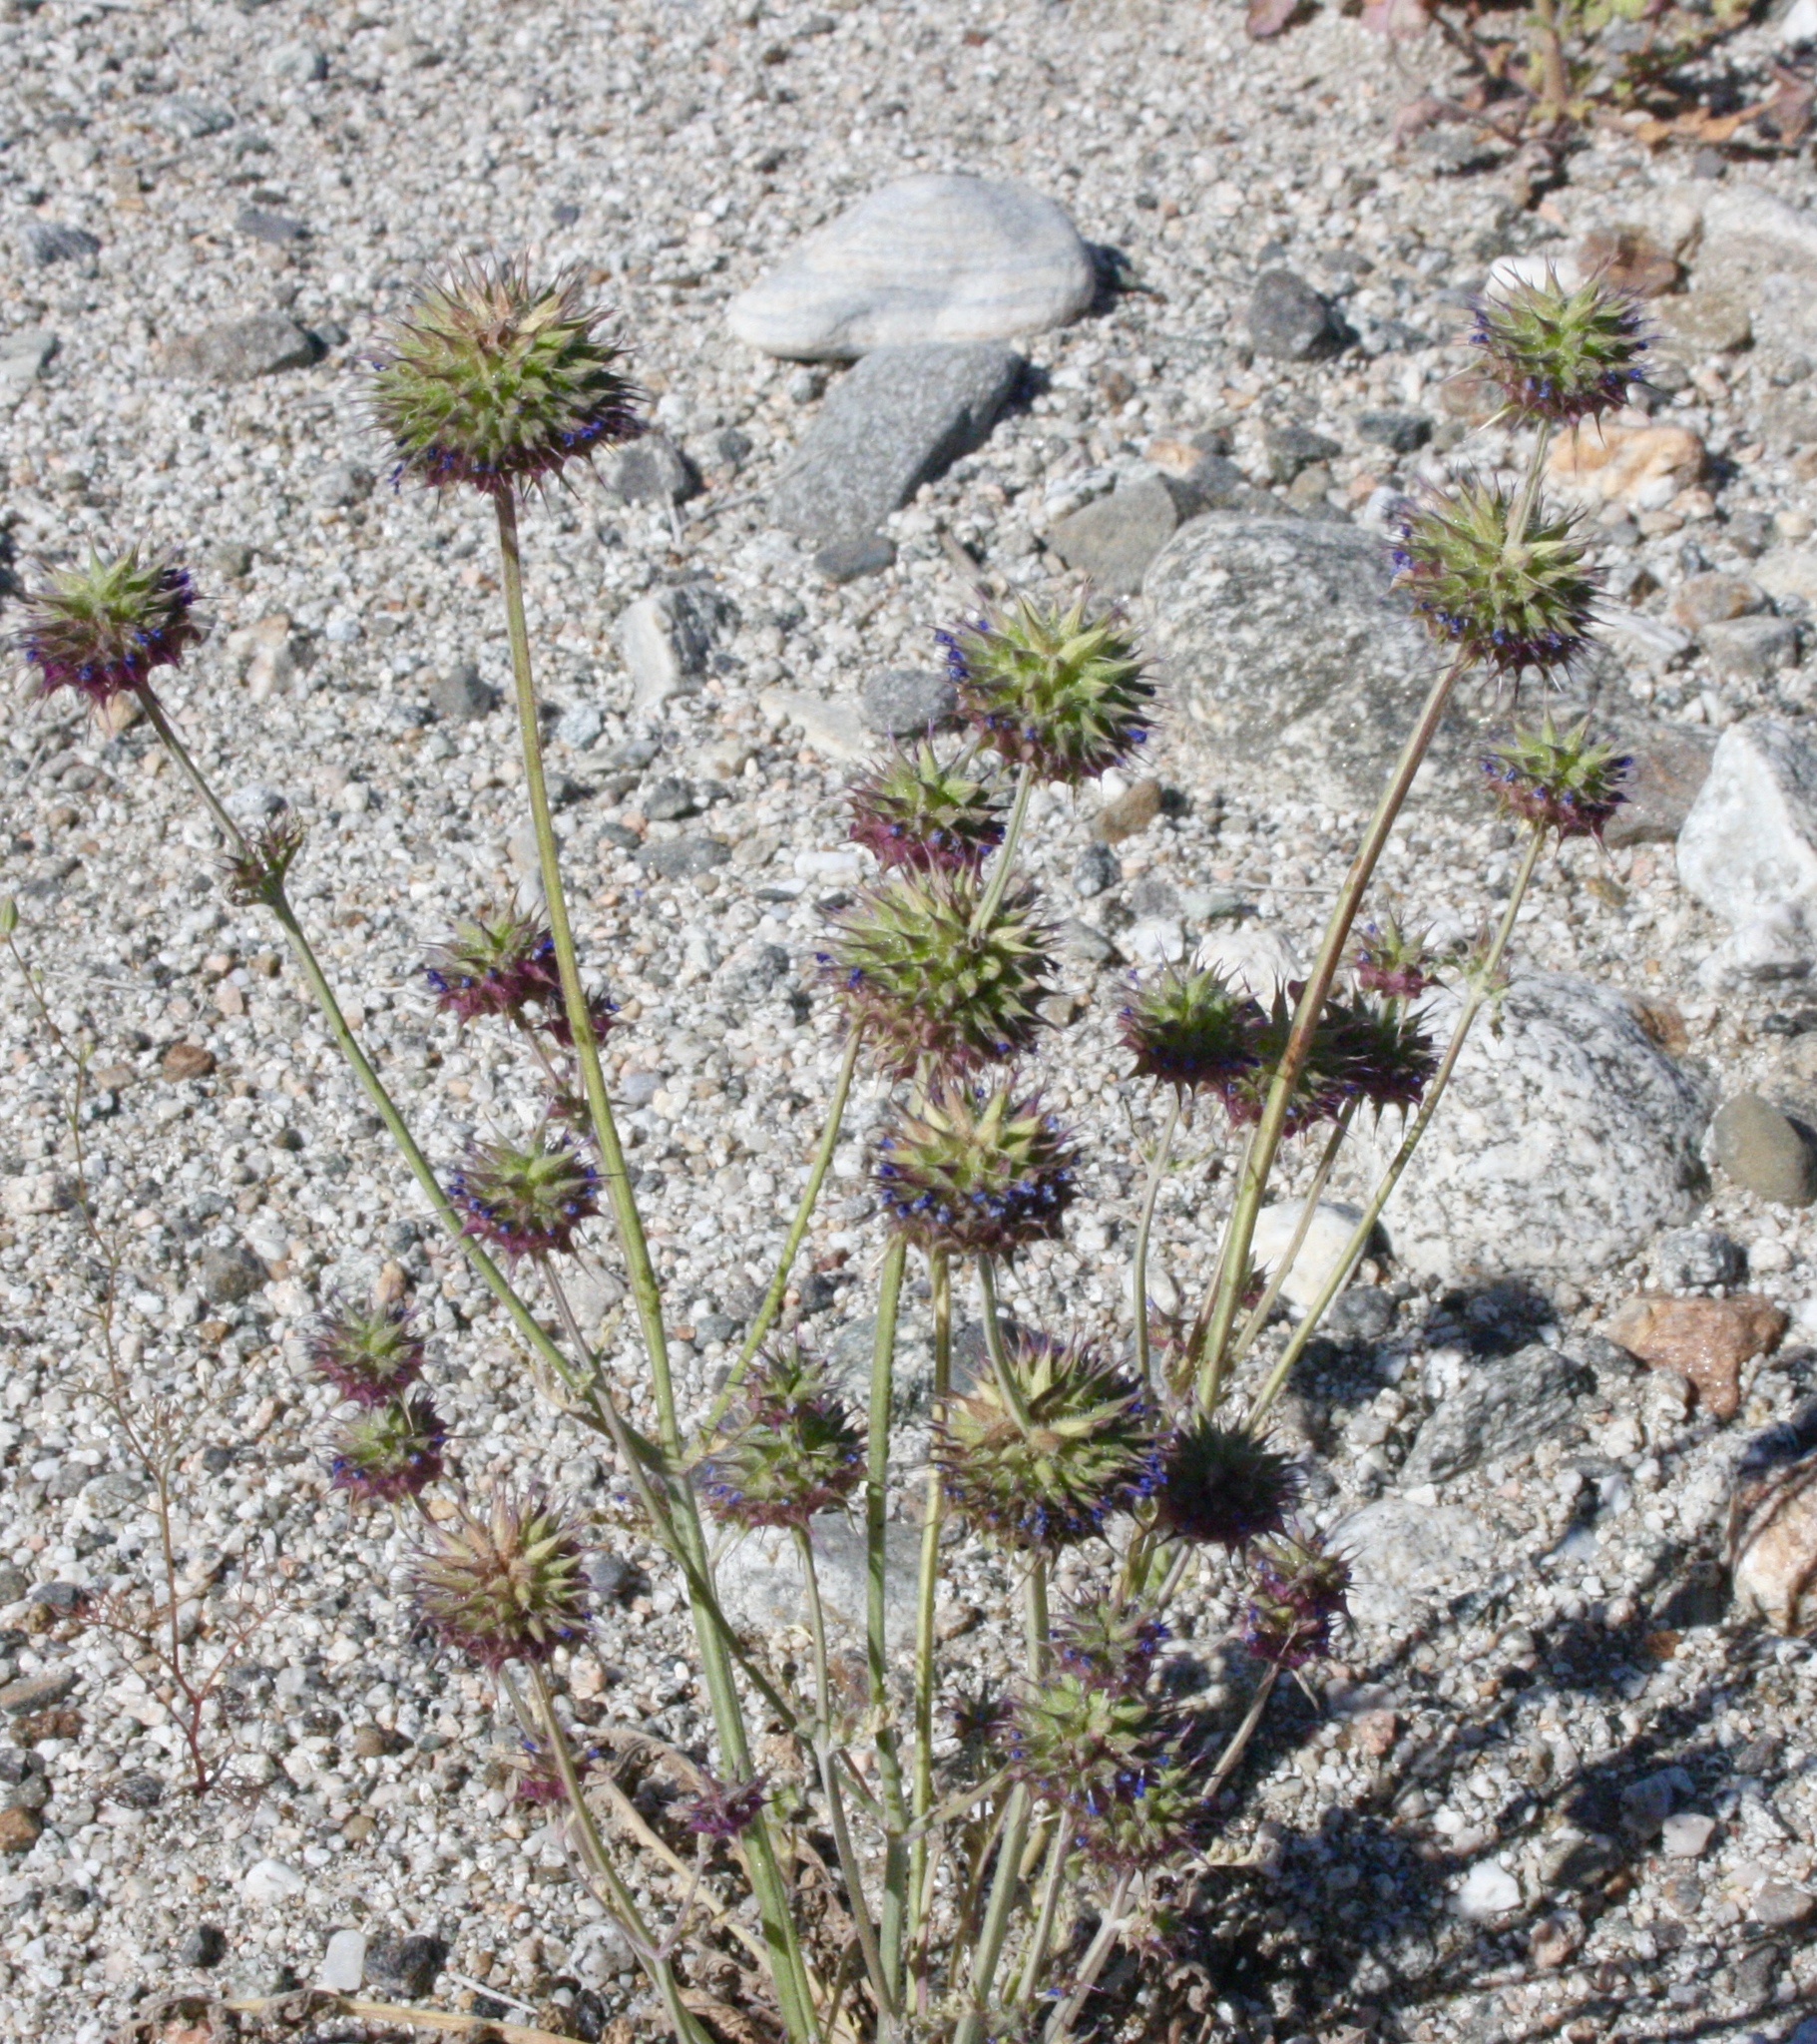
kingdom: Plantae
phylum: Tracheophyta
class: Magnoliopsida
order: Lamiales
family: Lamiaceae
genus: Salvia
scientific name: Salvia columbariae
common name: Chia
